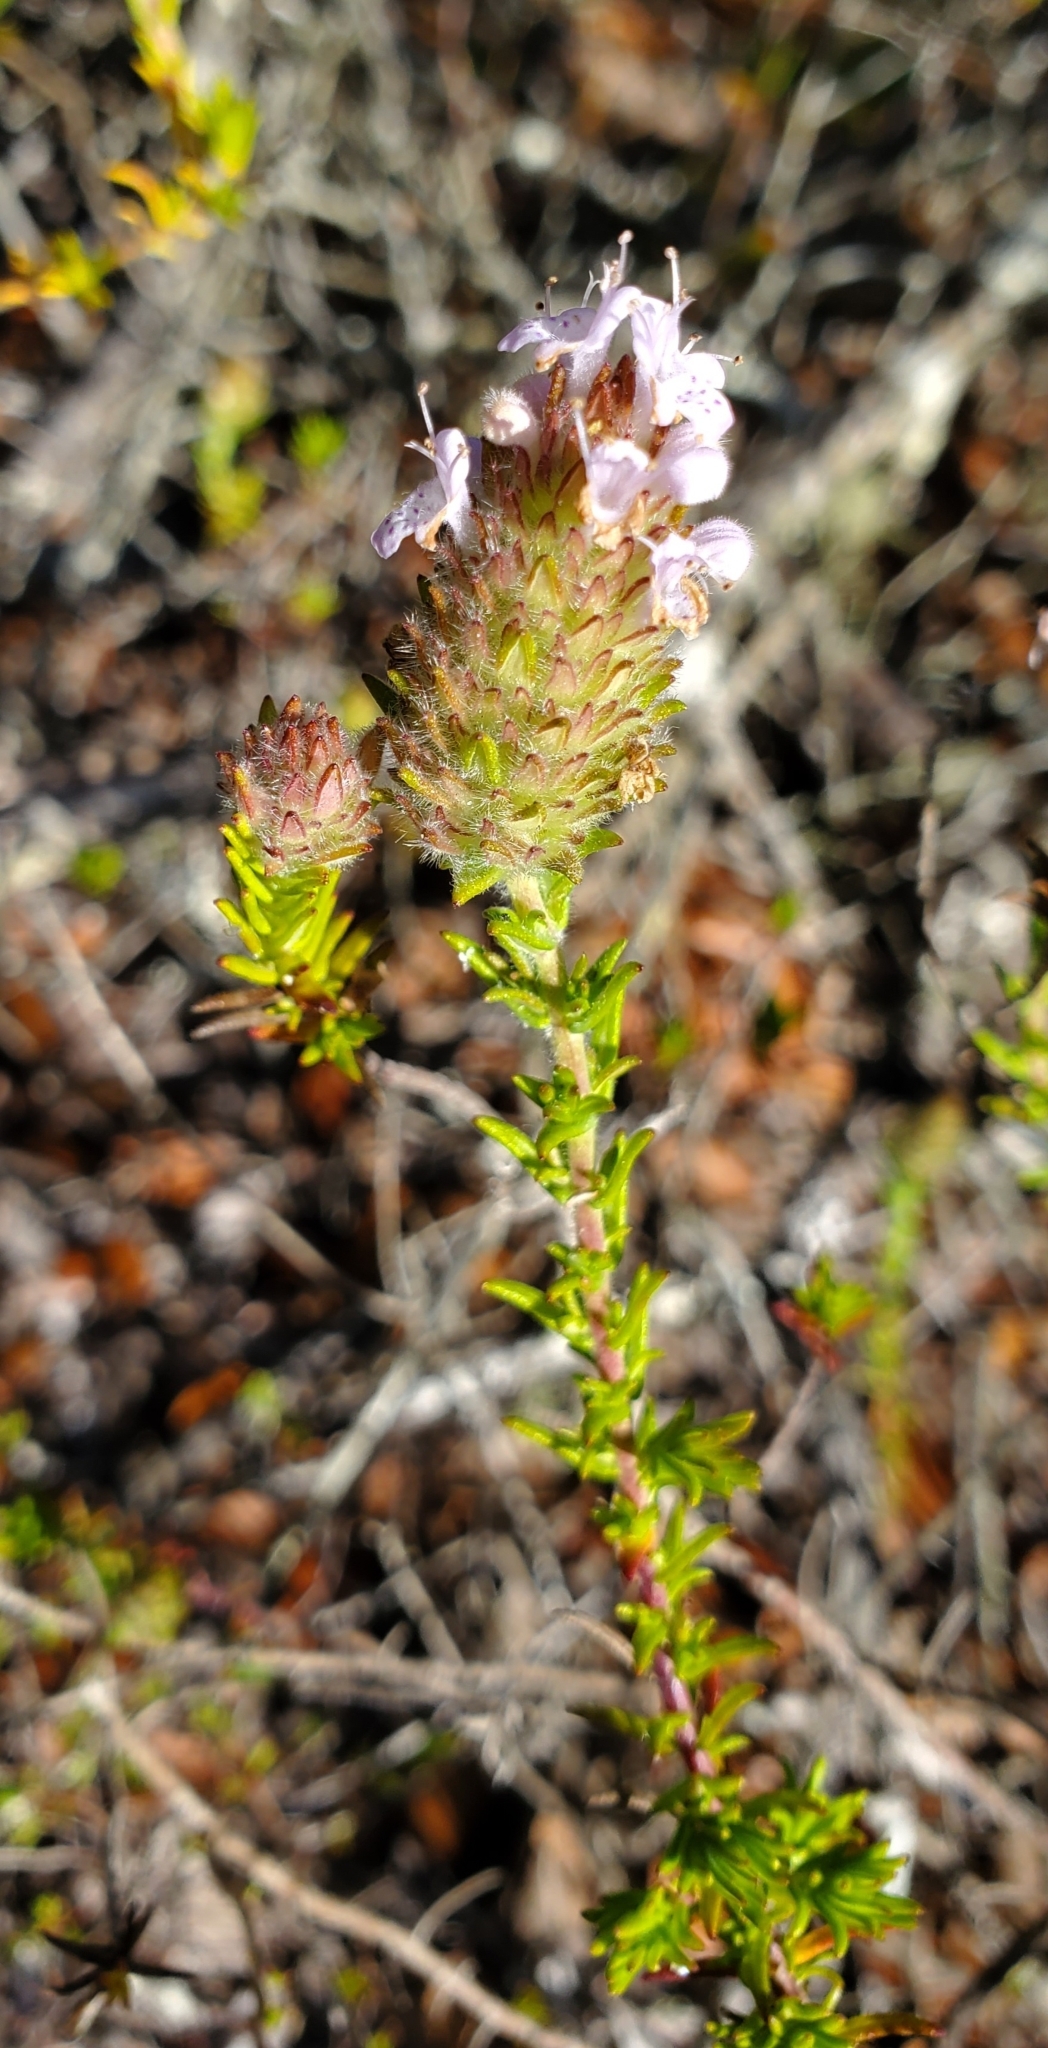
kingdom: Plantae
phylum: Tracheophyta
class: Magnoliopsida
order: Lamiales
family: Lamiaceae
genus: Piloblephis
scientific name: Piloblephis rigida
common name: Wild pennyroyal
